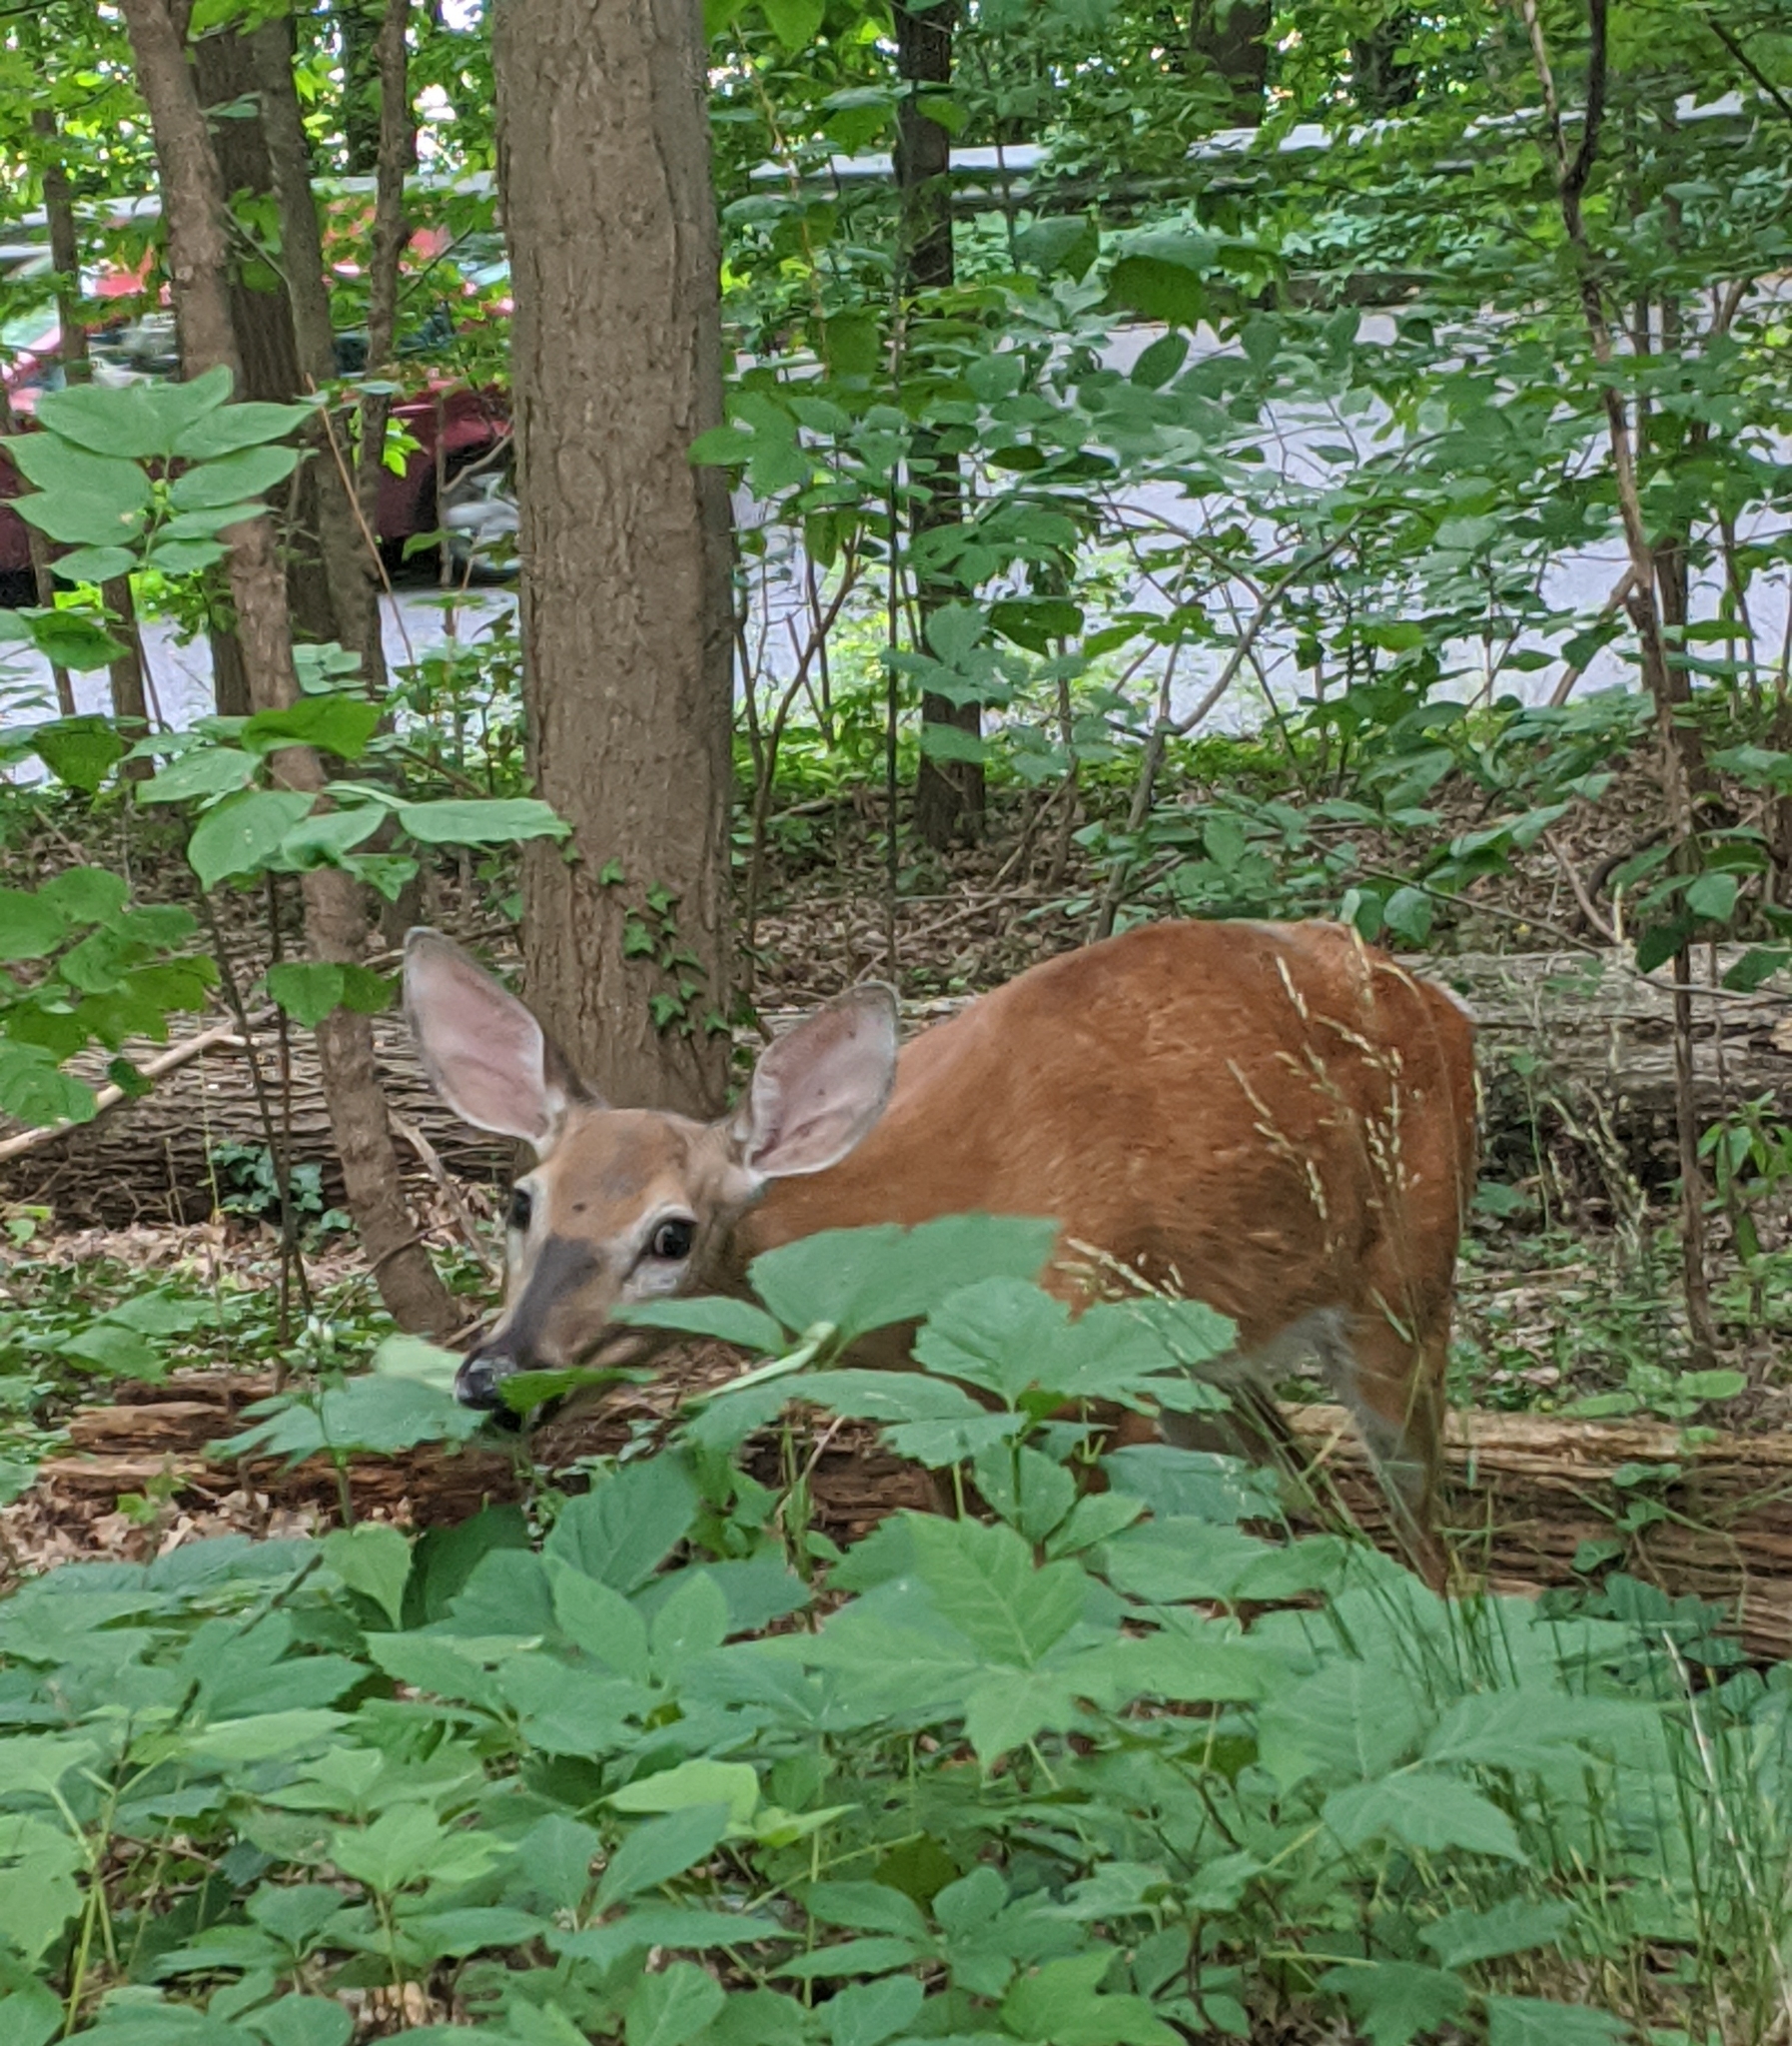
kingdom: Animalia
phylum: Chordata
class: Mammalia
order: Artiodactyla
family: Cervidae
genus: Odocoileus
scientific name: Odocoileus virginianus
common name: White-tailed deer
